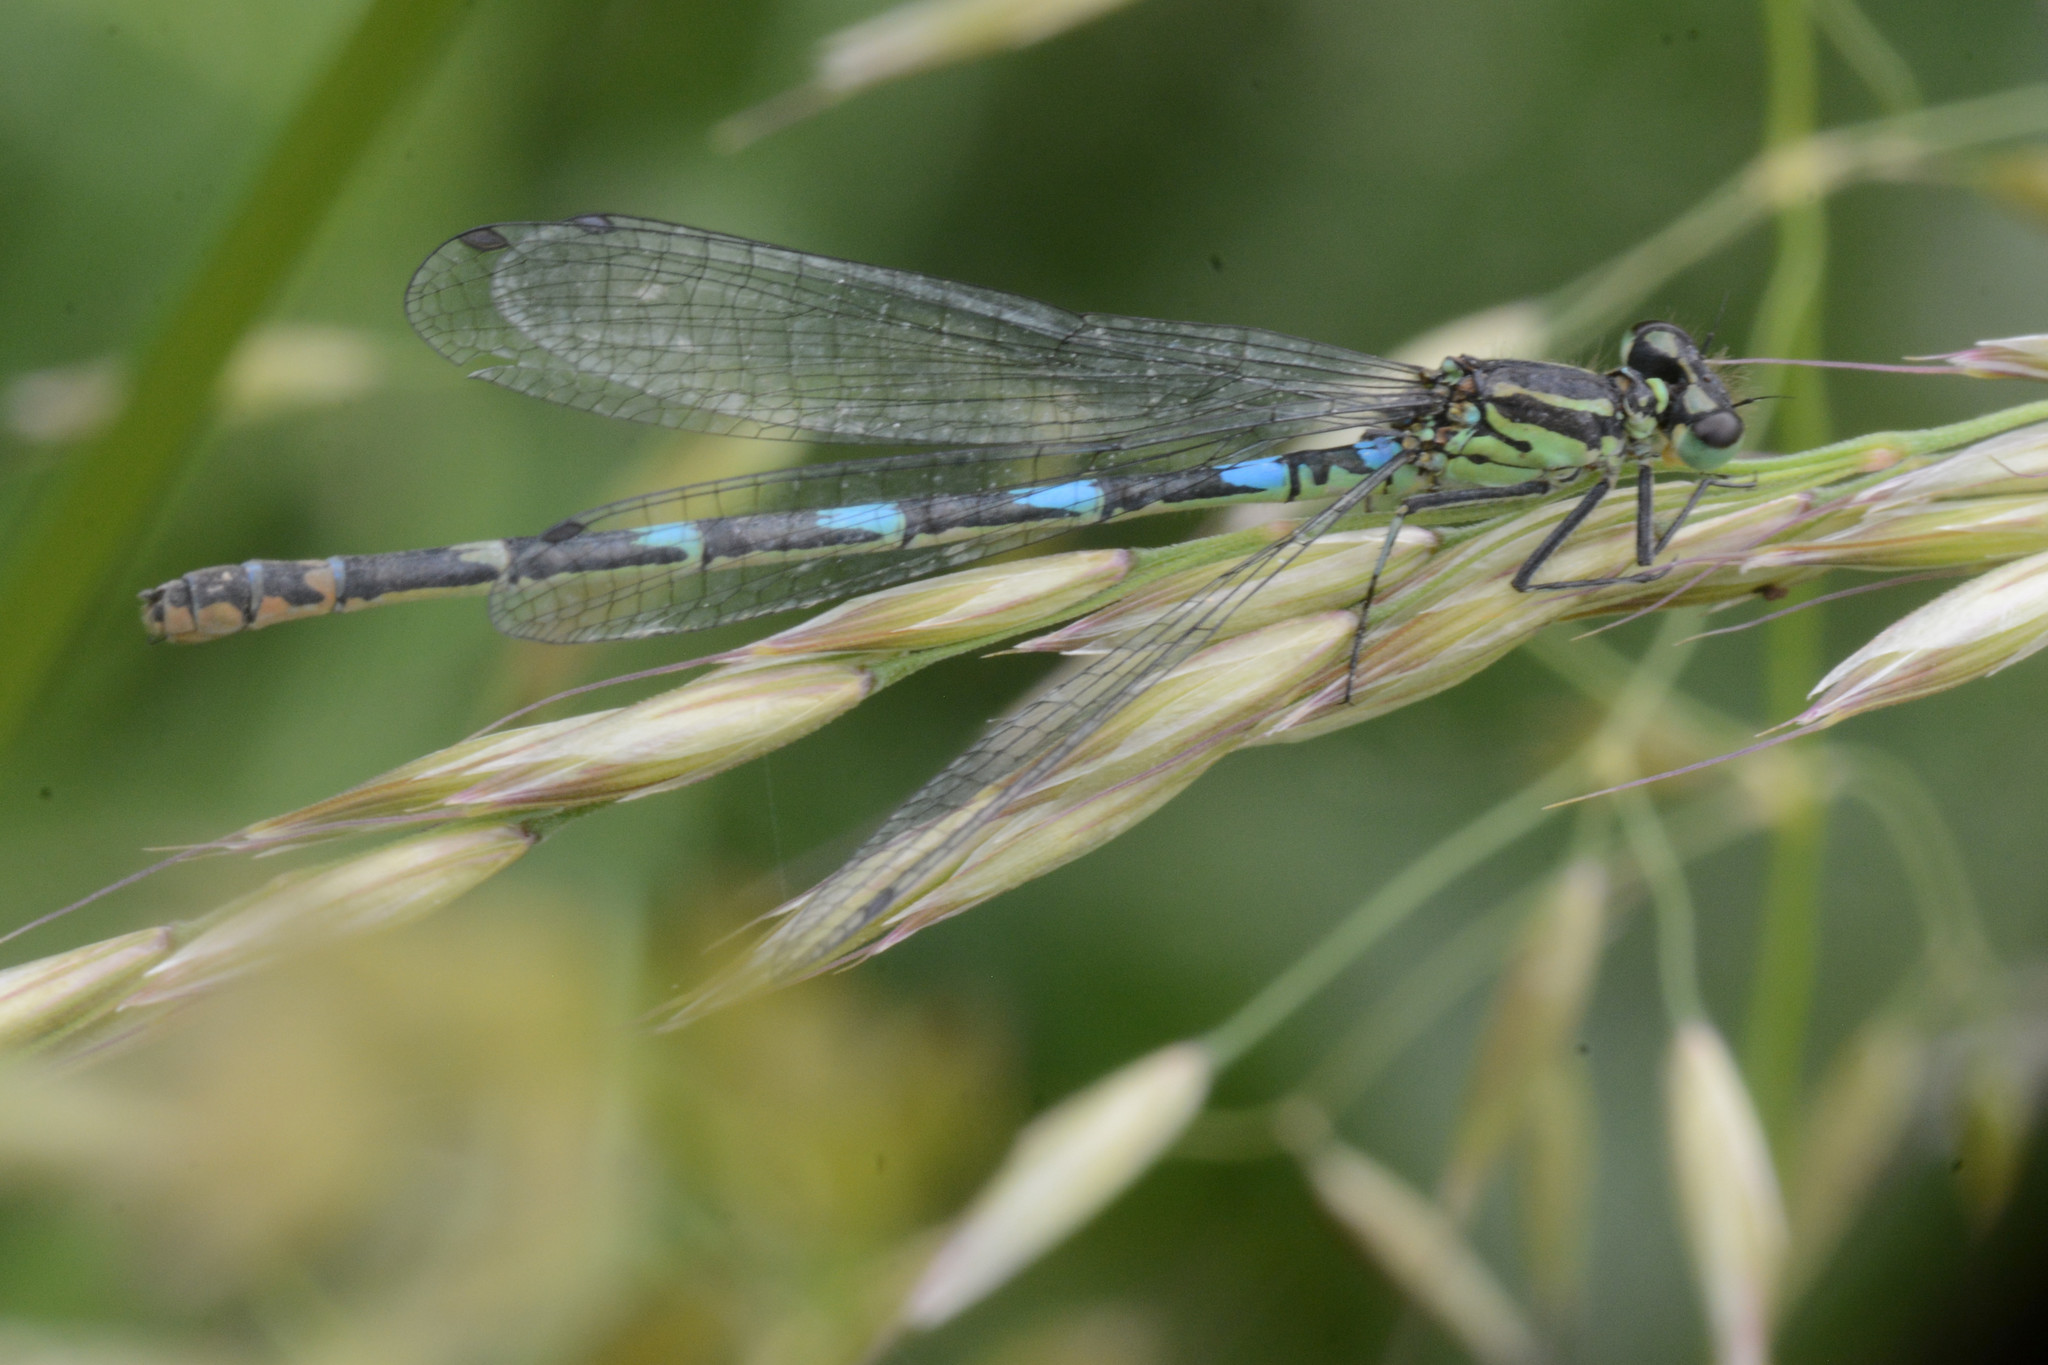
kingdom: Animalia
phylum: Arthropoda
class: Insecta
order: Odonata
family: Coenagrionidae
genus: Coenagrion
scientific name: Coenagrion pulchellum
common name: Variable bluet
